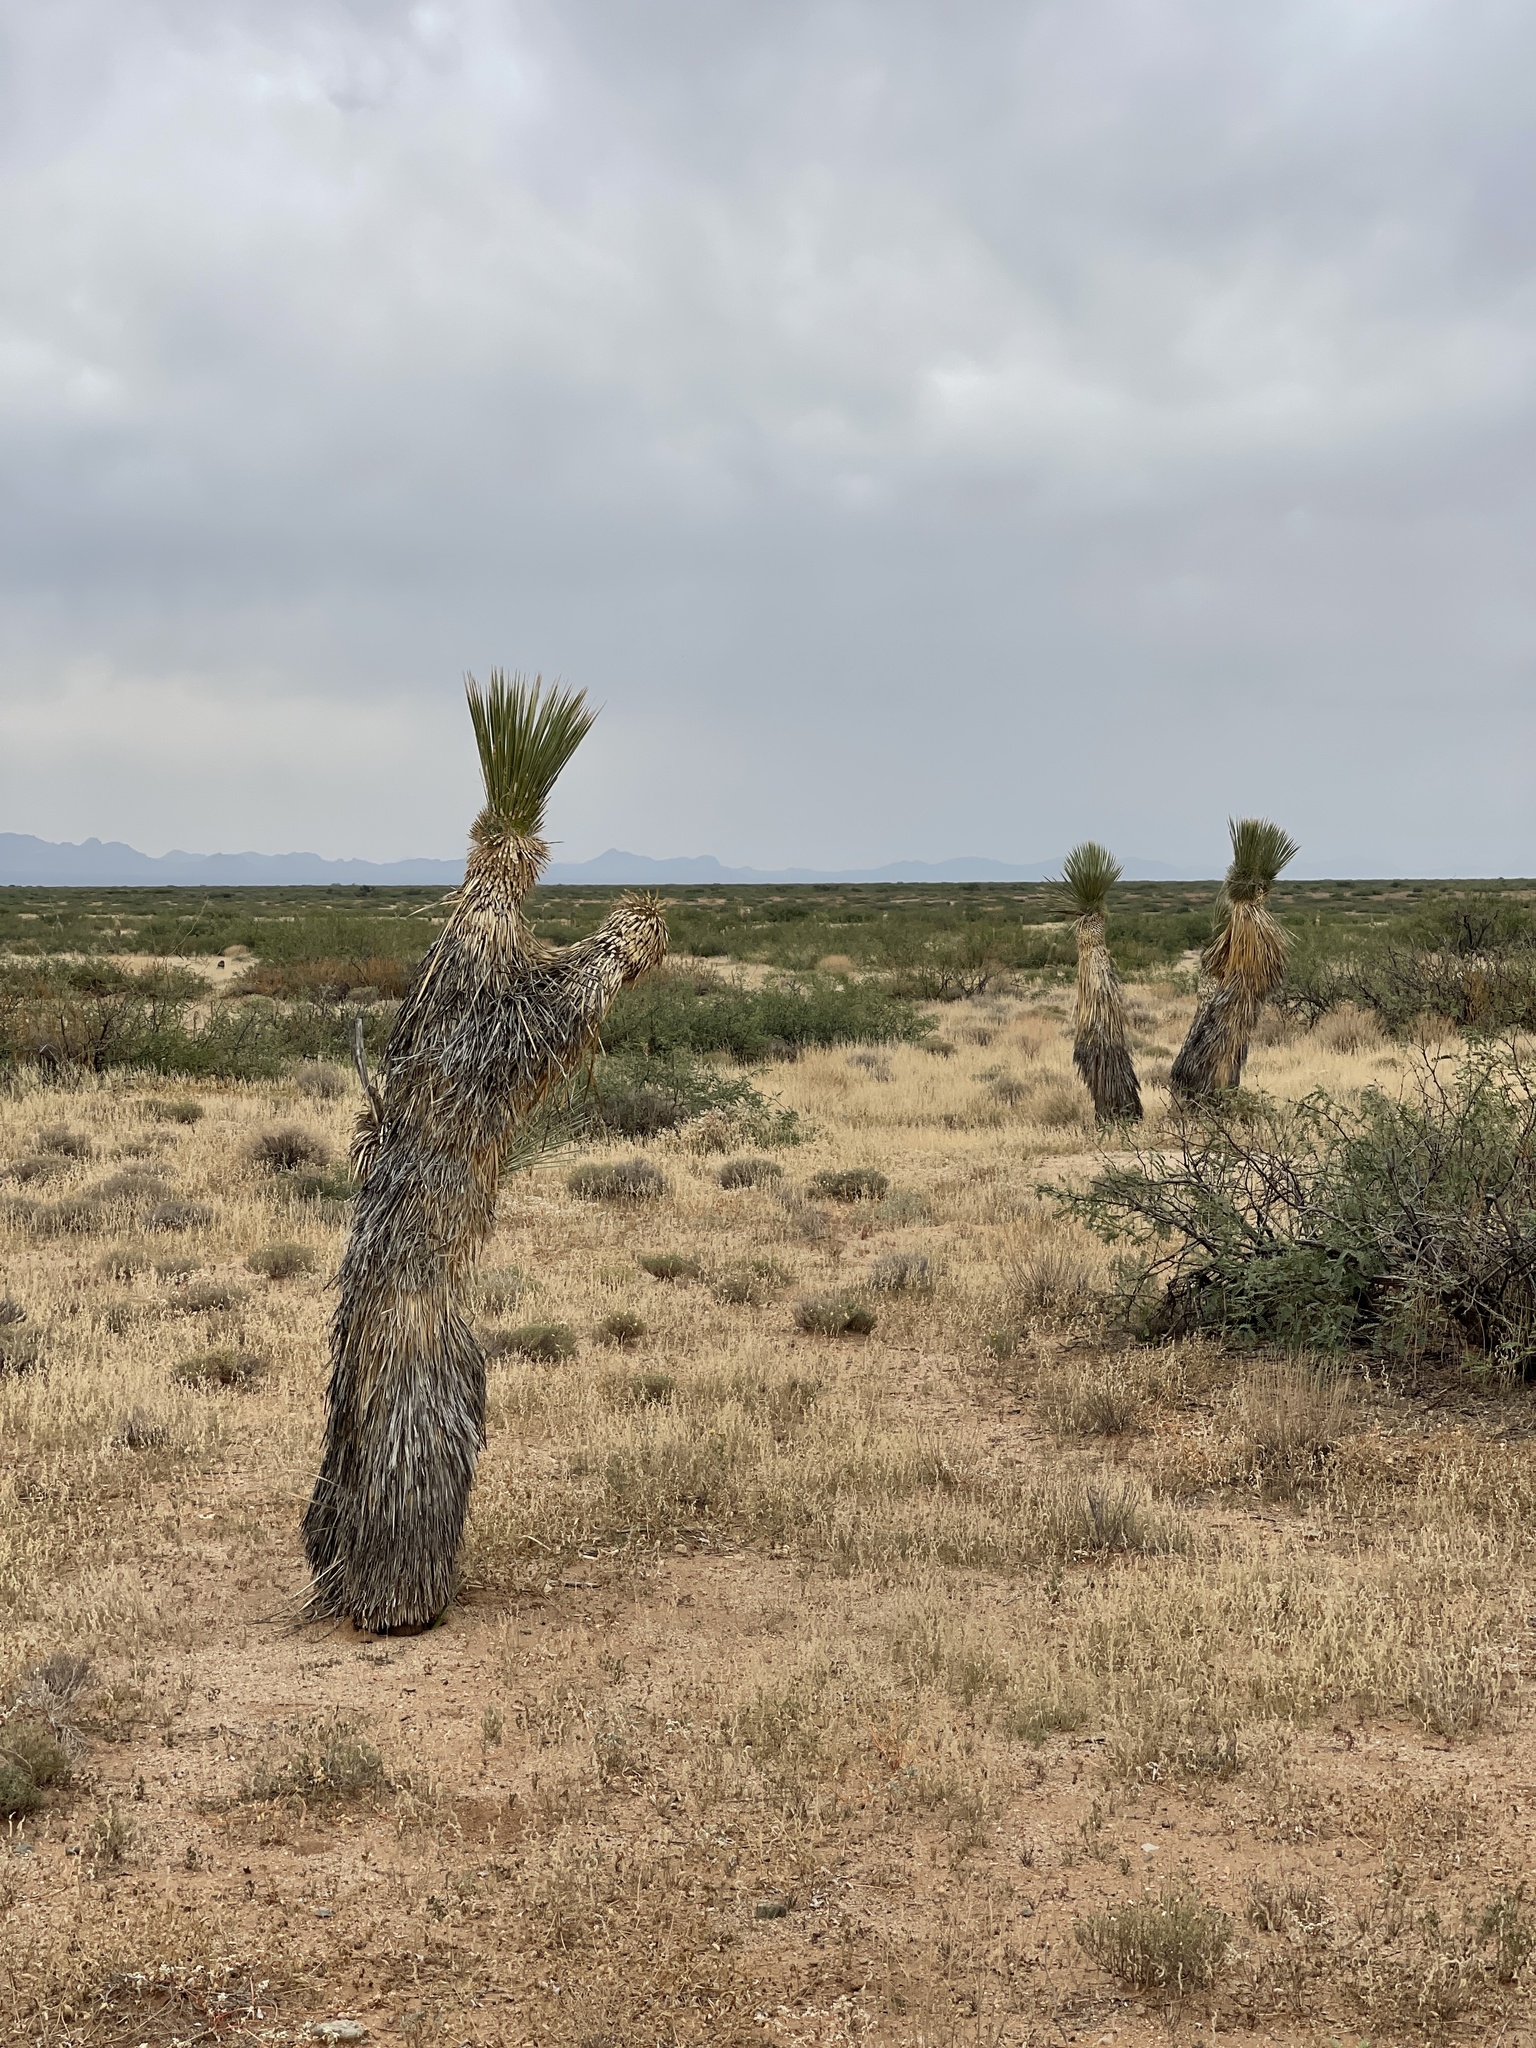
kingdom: Plantae
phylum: Tracheophyta
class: Liliopsida
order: Asparagales
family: Asparagaceae
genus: Yucca
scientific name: Yucca elata
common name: Palmella
